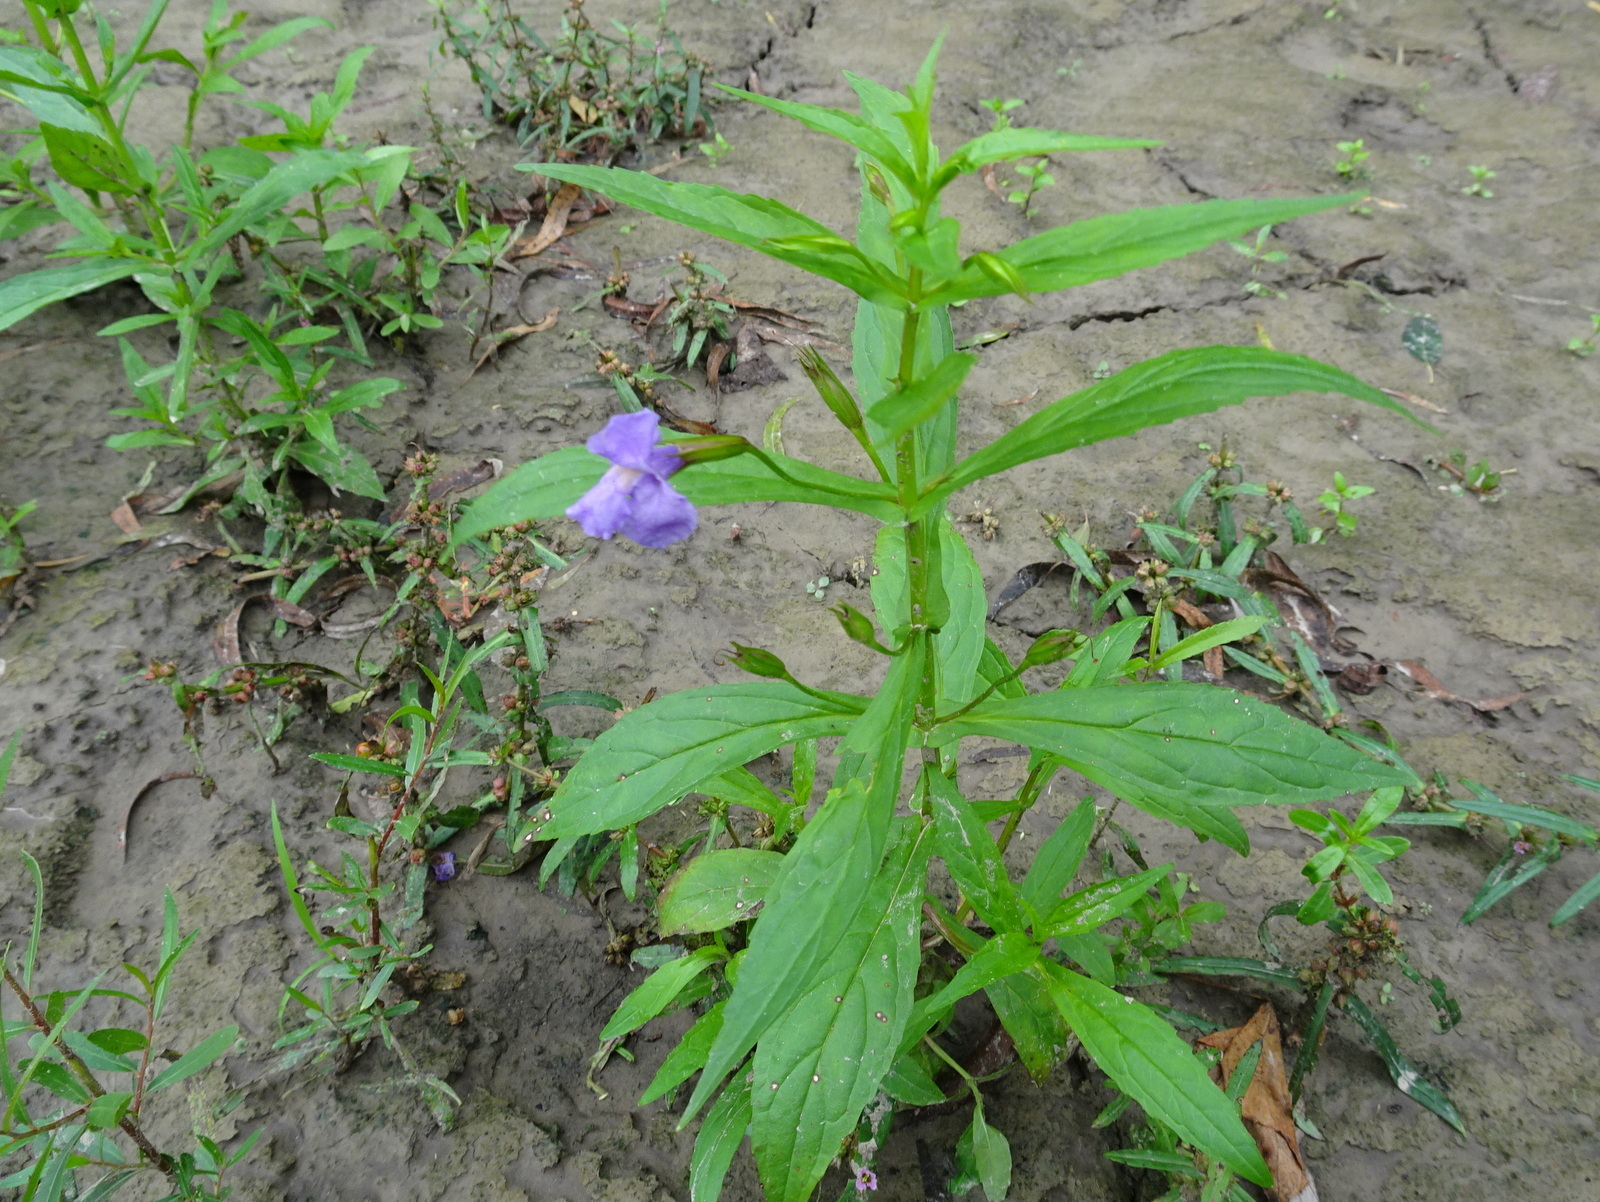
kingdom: Plantae
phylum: Tracheophyta
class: Magnoliopsida
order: Lamiales
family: Phrymaceae
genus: Mimulus
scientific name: Mimulus ringens
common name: Allegheny monkeyflower
